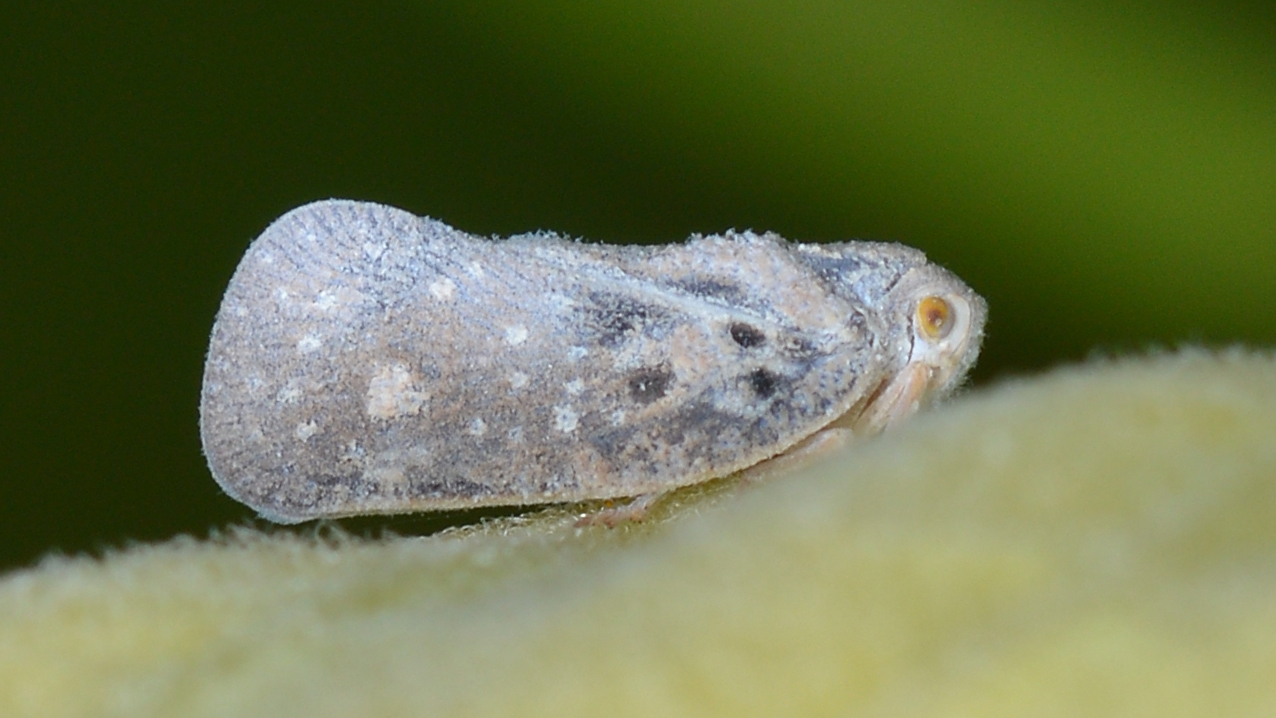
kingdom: Animalia
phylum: Arthropoda
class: Insecta
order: Hemiptera
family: Flatidae
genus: Metcalfa
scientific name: Metcalfa pruinosa
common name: Citrus flatid planthopper
